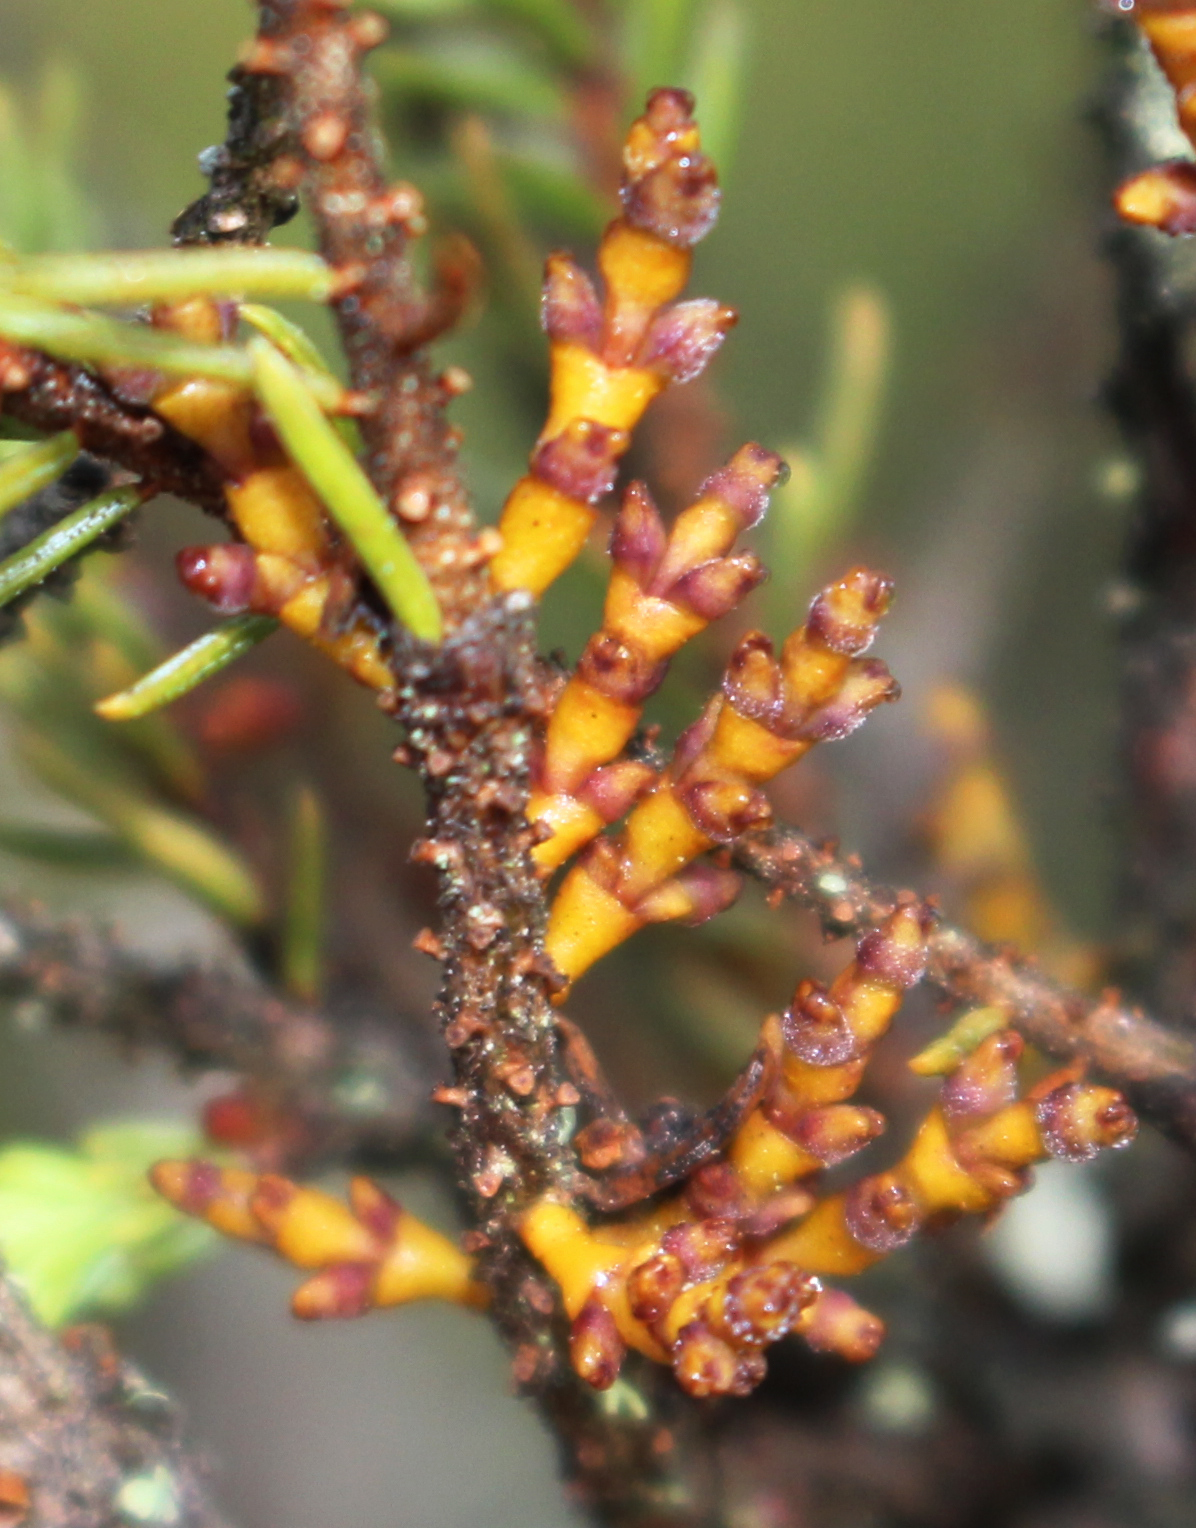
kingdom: Plantae
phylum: Tracheophyta
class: Magnoliopsida
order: Santalales
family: Viscaceae
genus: Arceuthobium
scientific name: Arceuthobium pusillum
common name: Dwarf-mistletoe
